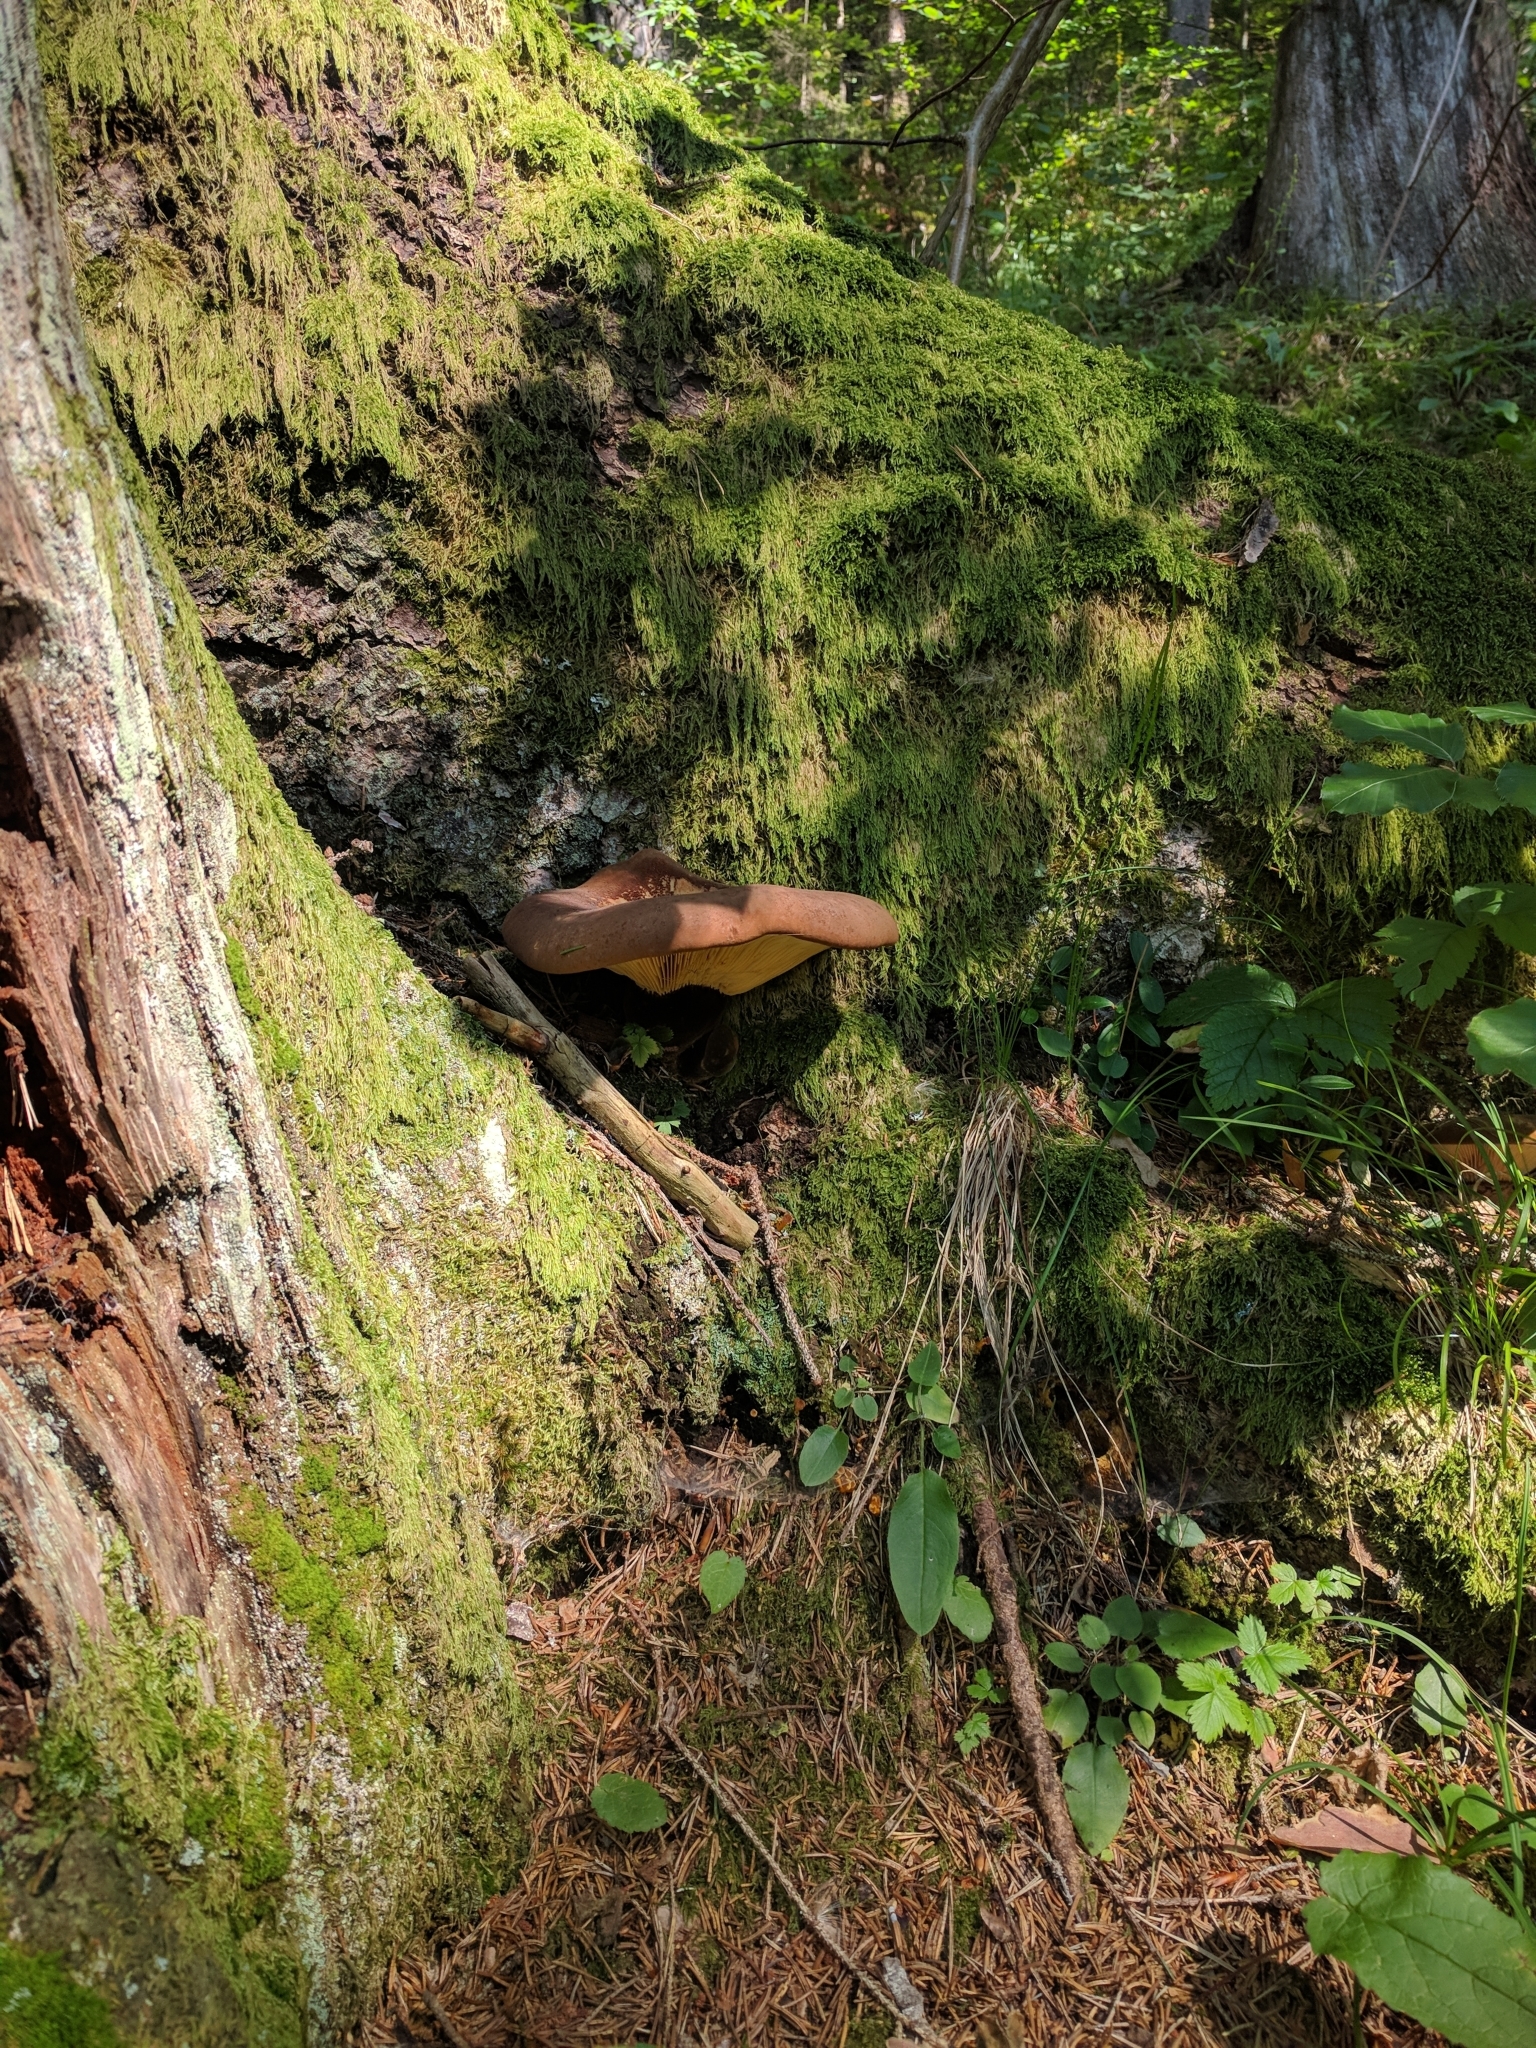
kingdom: Fungi
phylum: Basidiomycota
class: Agaricomycetes
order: Boletales
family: Tapinellaceae
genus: Tapinella
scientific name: Tapinella atrotomentosa
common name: Velvet rollrim
